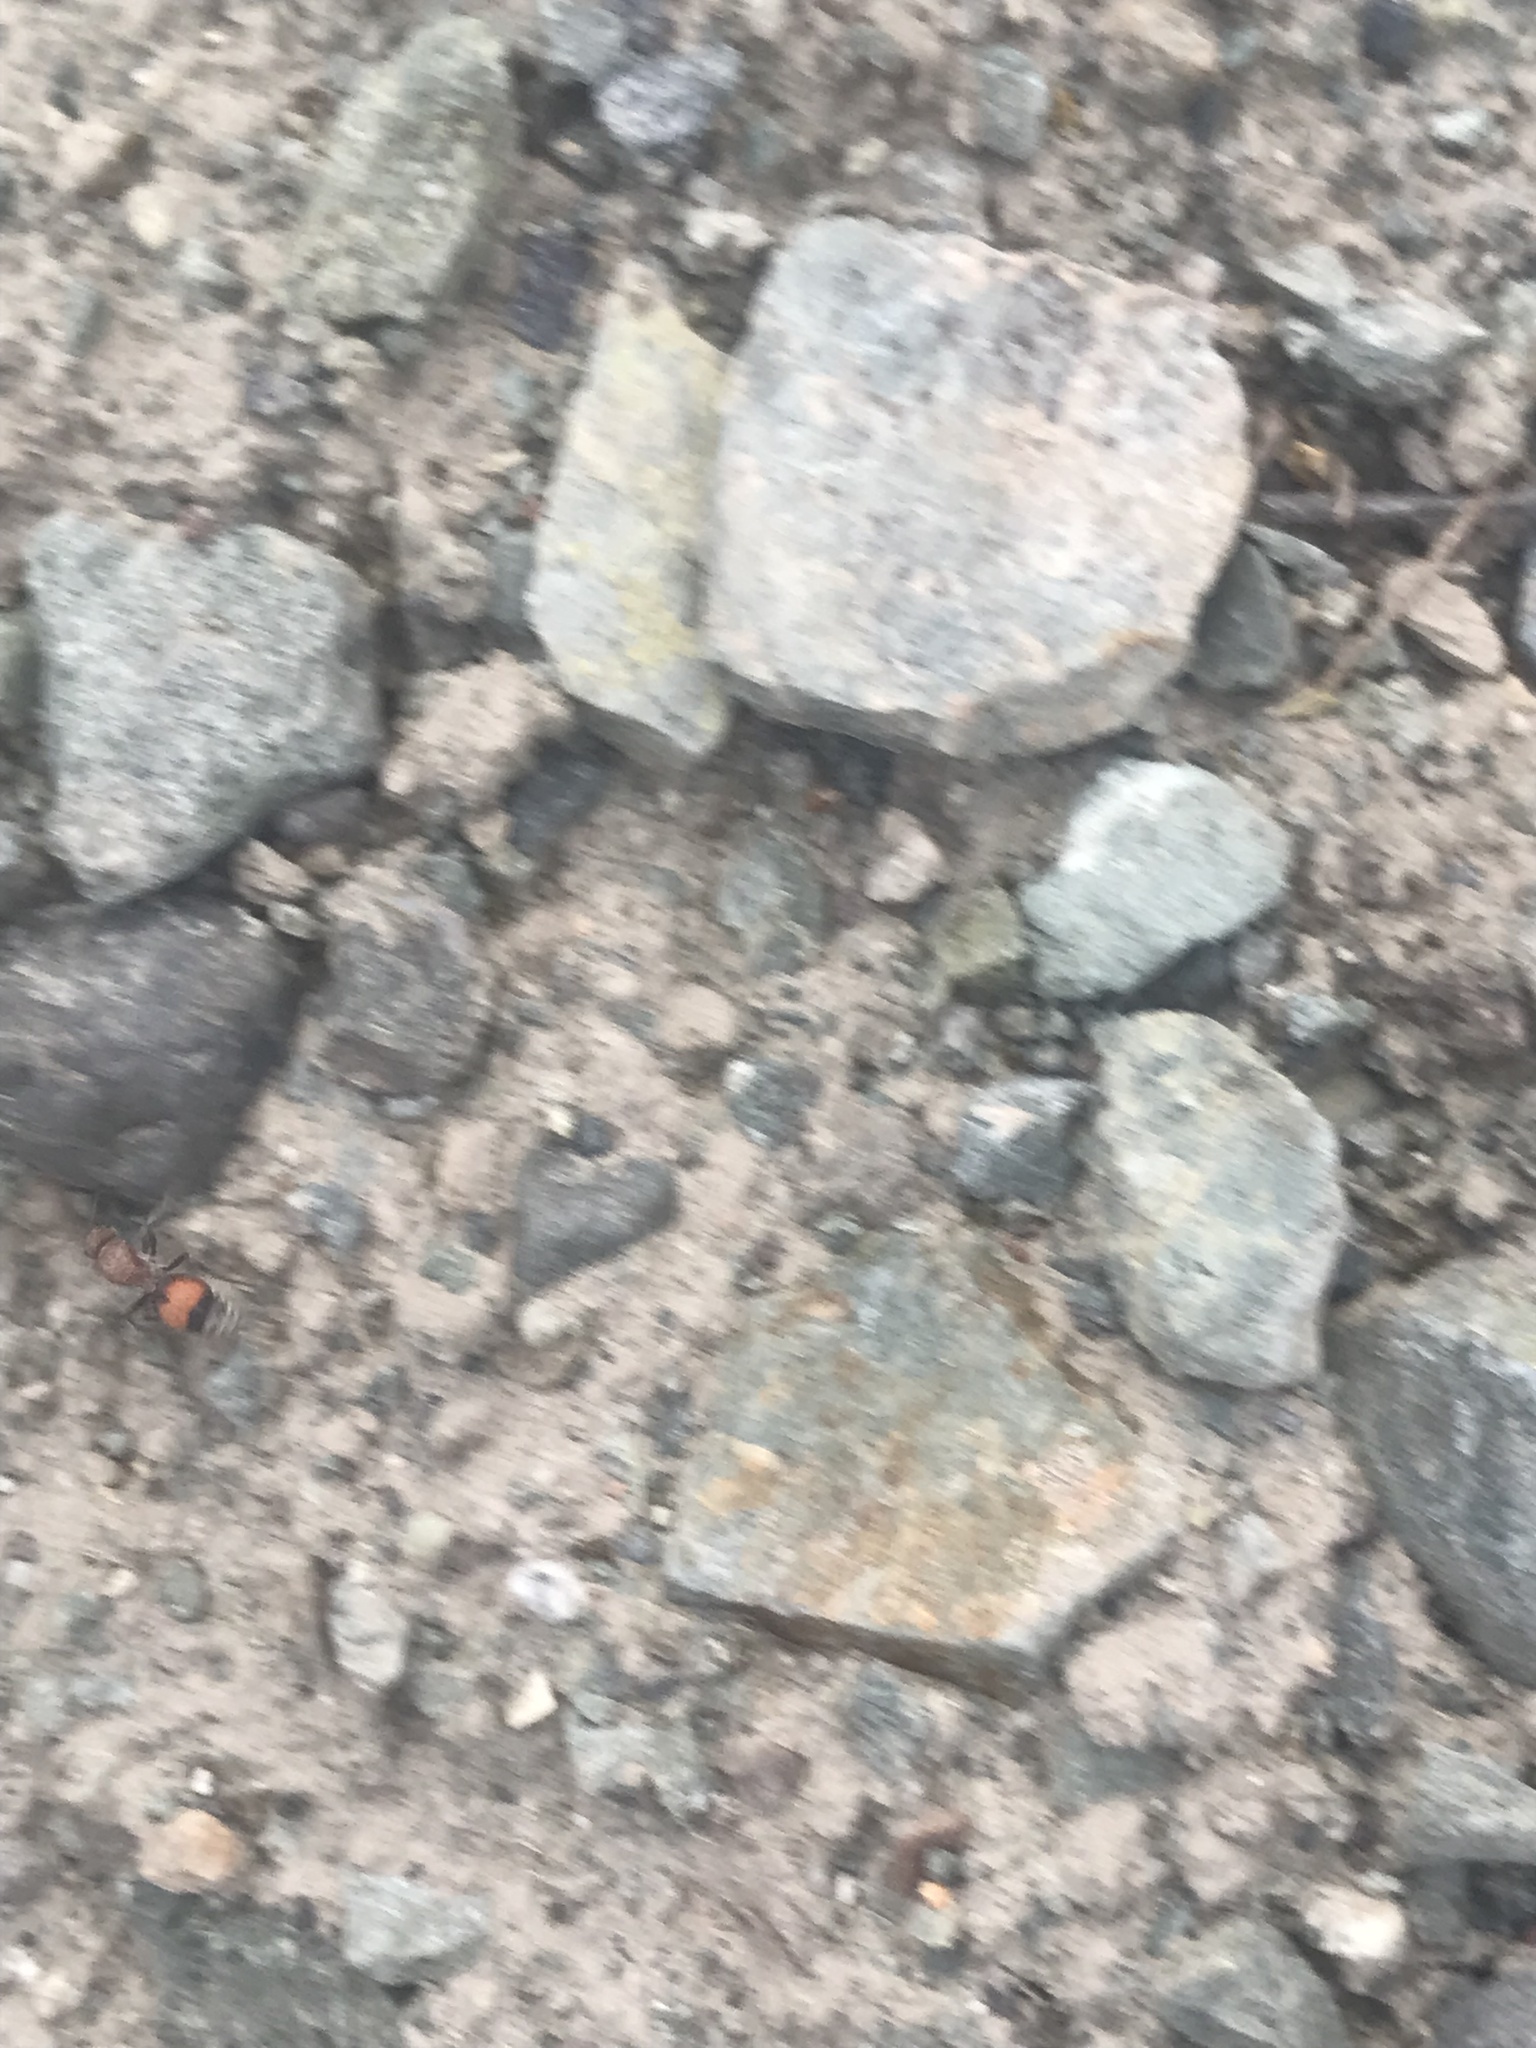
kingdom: Animalia
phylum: Arthropoda
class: Insecta
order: Hymenoptera
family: Mutillidae
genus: Dasymutilla
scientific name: Dasymutilla
